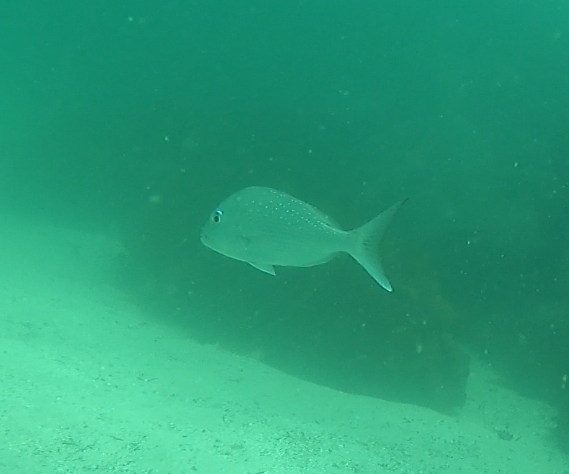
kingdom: Animalia
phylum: Chordata
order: Perciformes
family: Sparidae
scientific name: Sparidae
